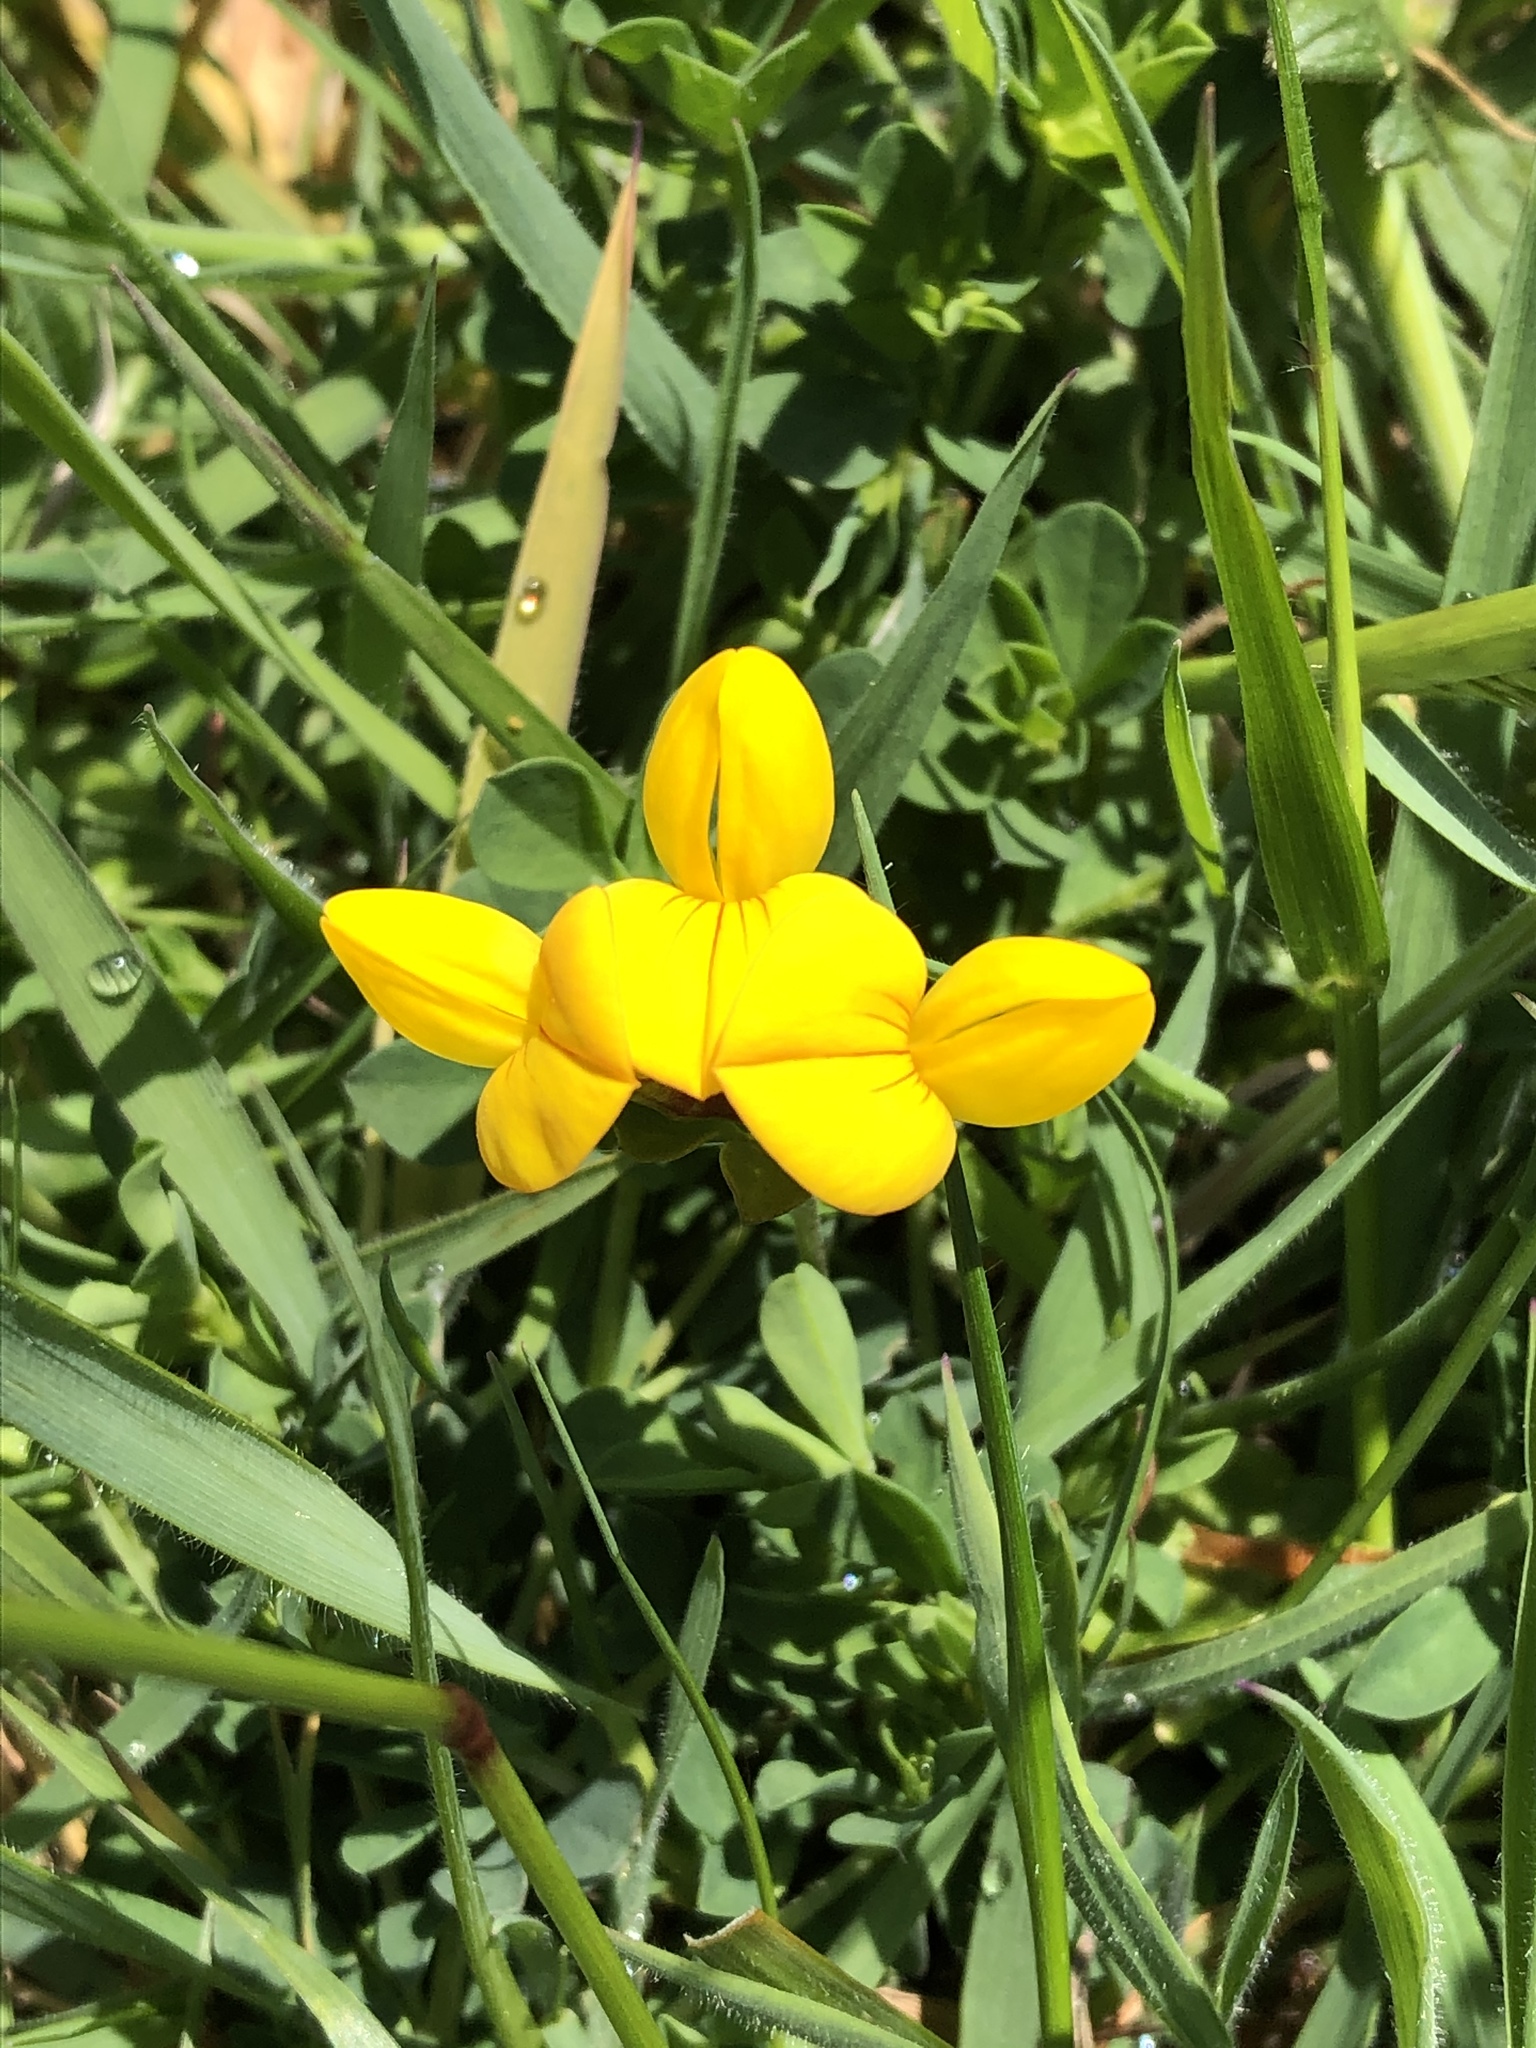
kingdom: Plantae
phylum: Tracheophyta
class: Magnoliopsida
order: Fabales
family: Fabaceae
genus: Lotus
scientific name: Lotus corniculatus
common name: Common bird's-foot-trefoil
